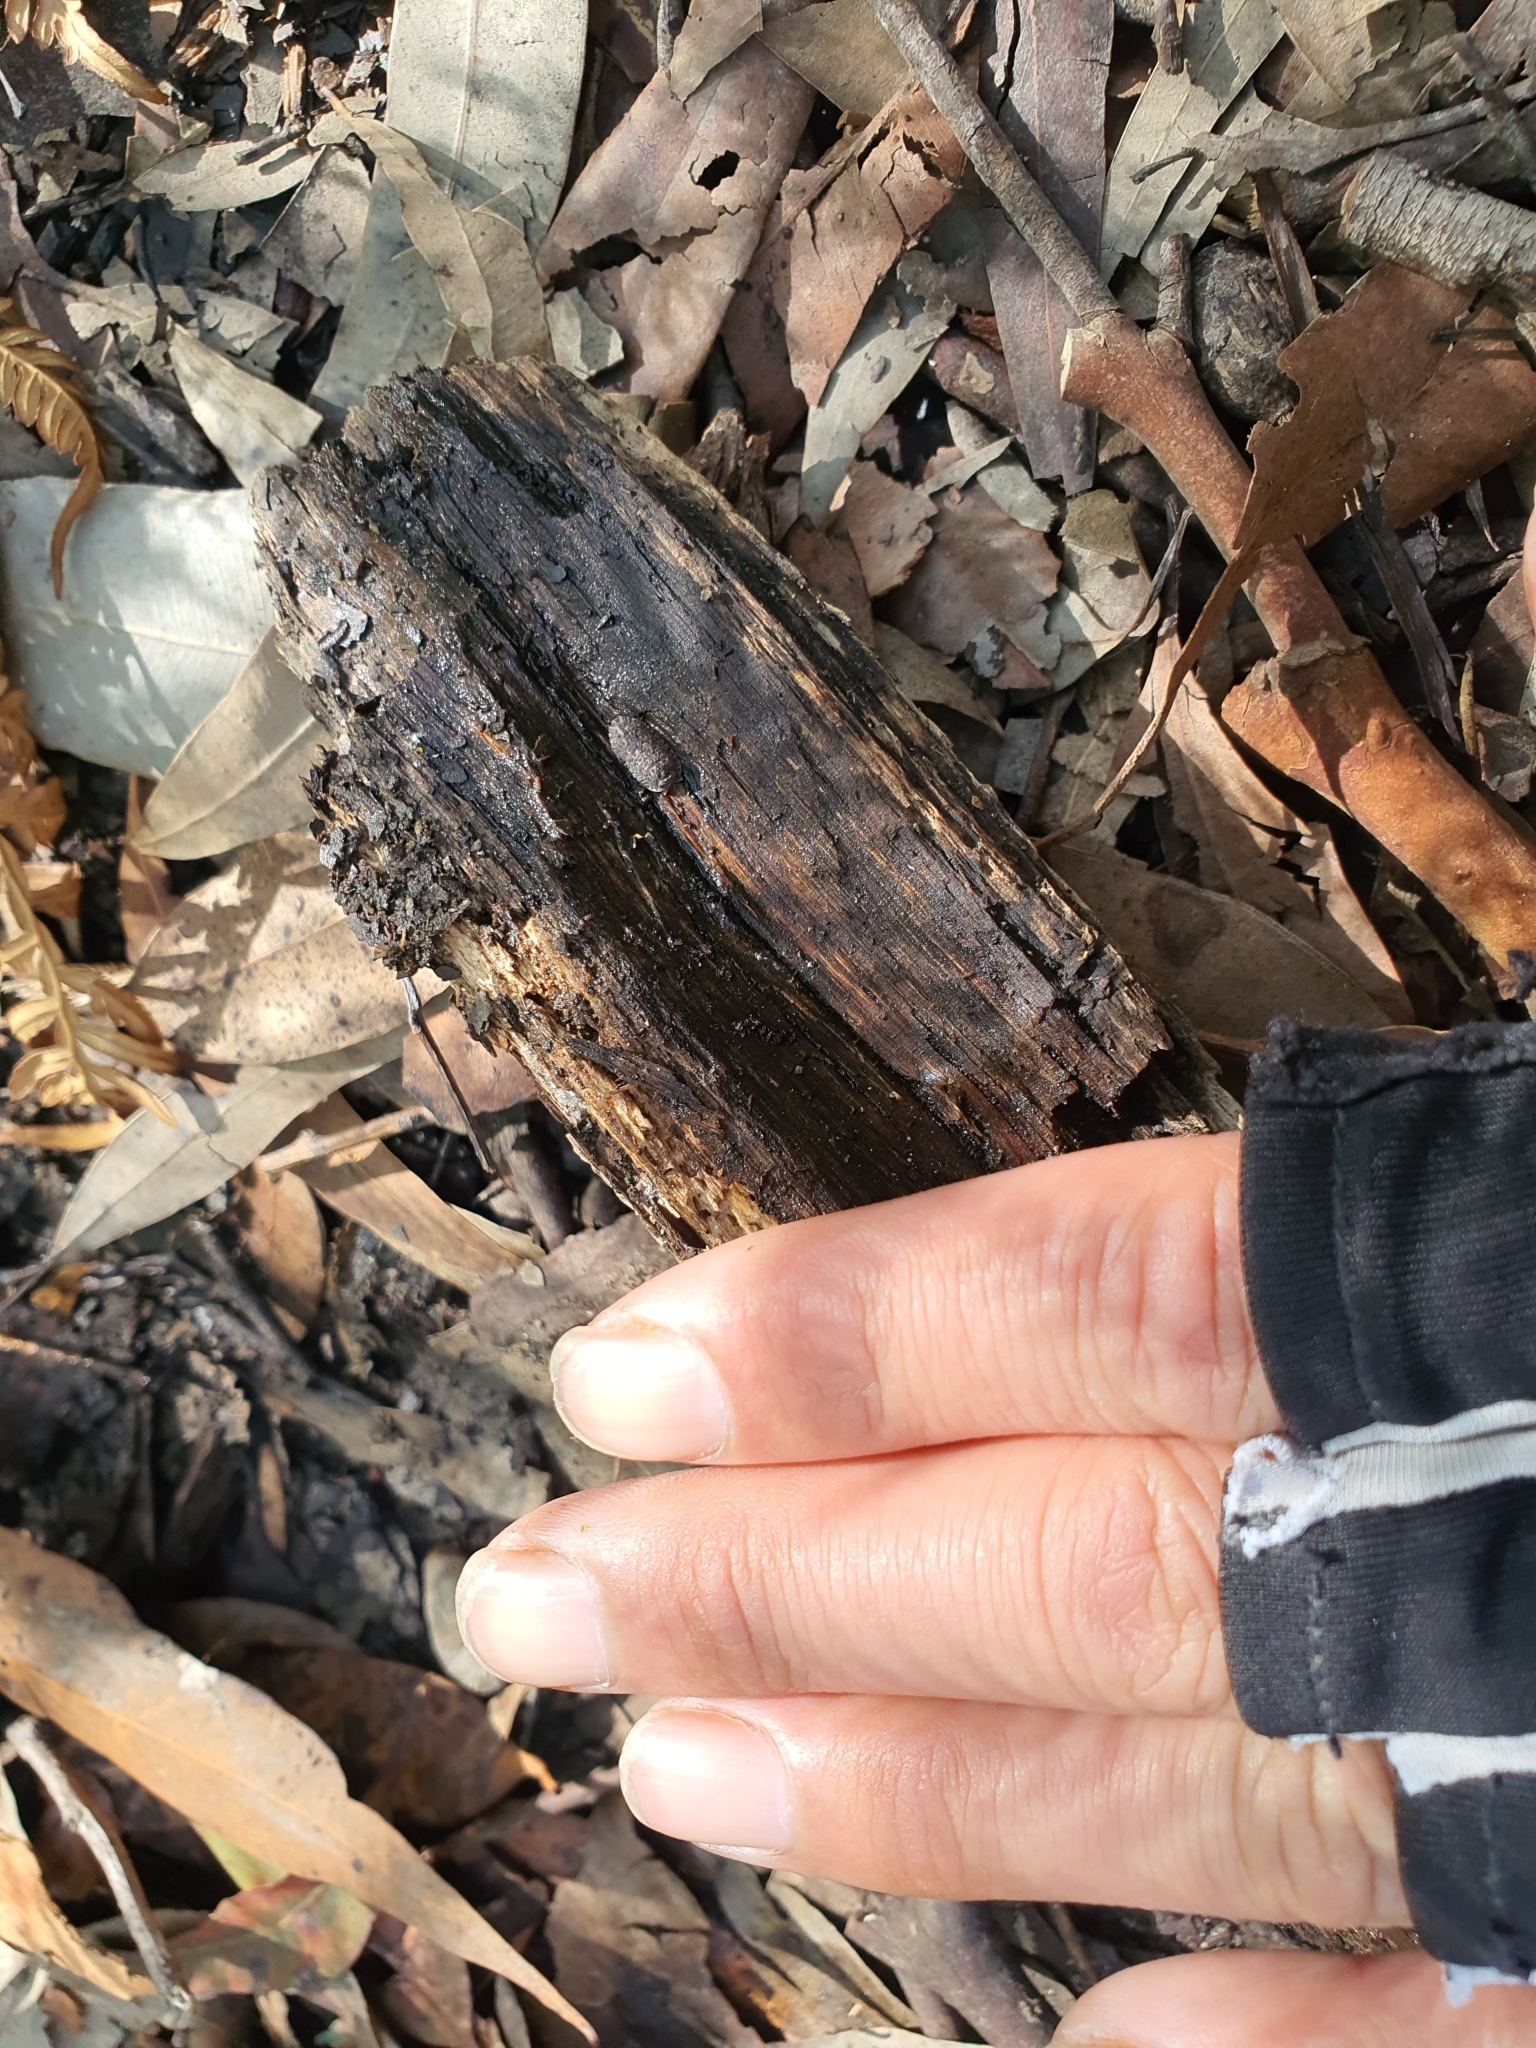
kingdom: Animalia
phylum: Arthropoda
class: Malacostraca
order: Isopoda
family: Armadillidae
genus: Merulana
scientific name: Merulana helmsiana
